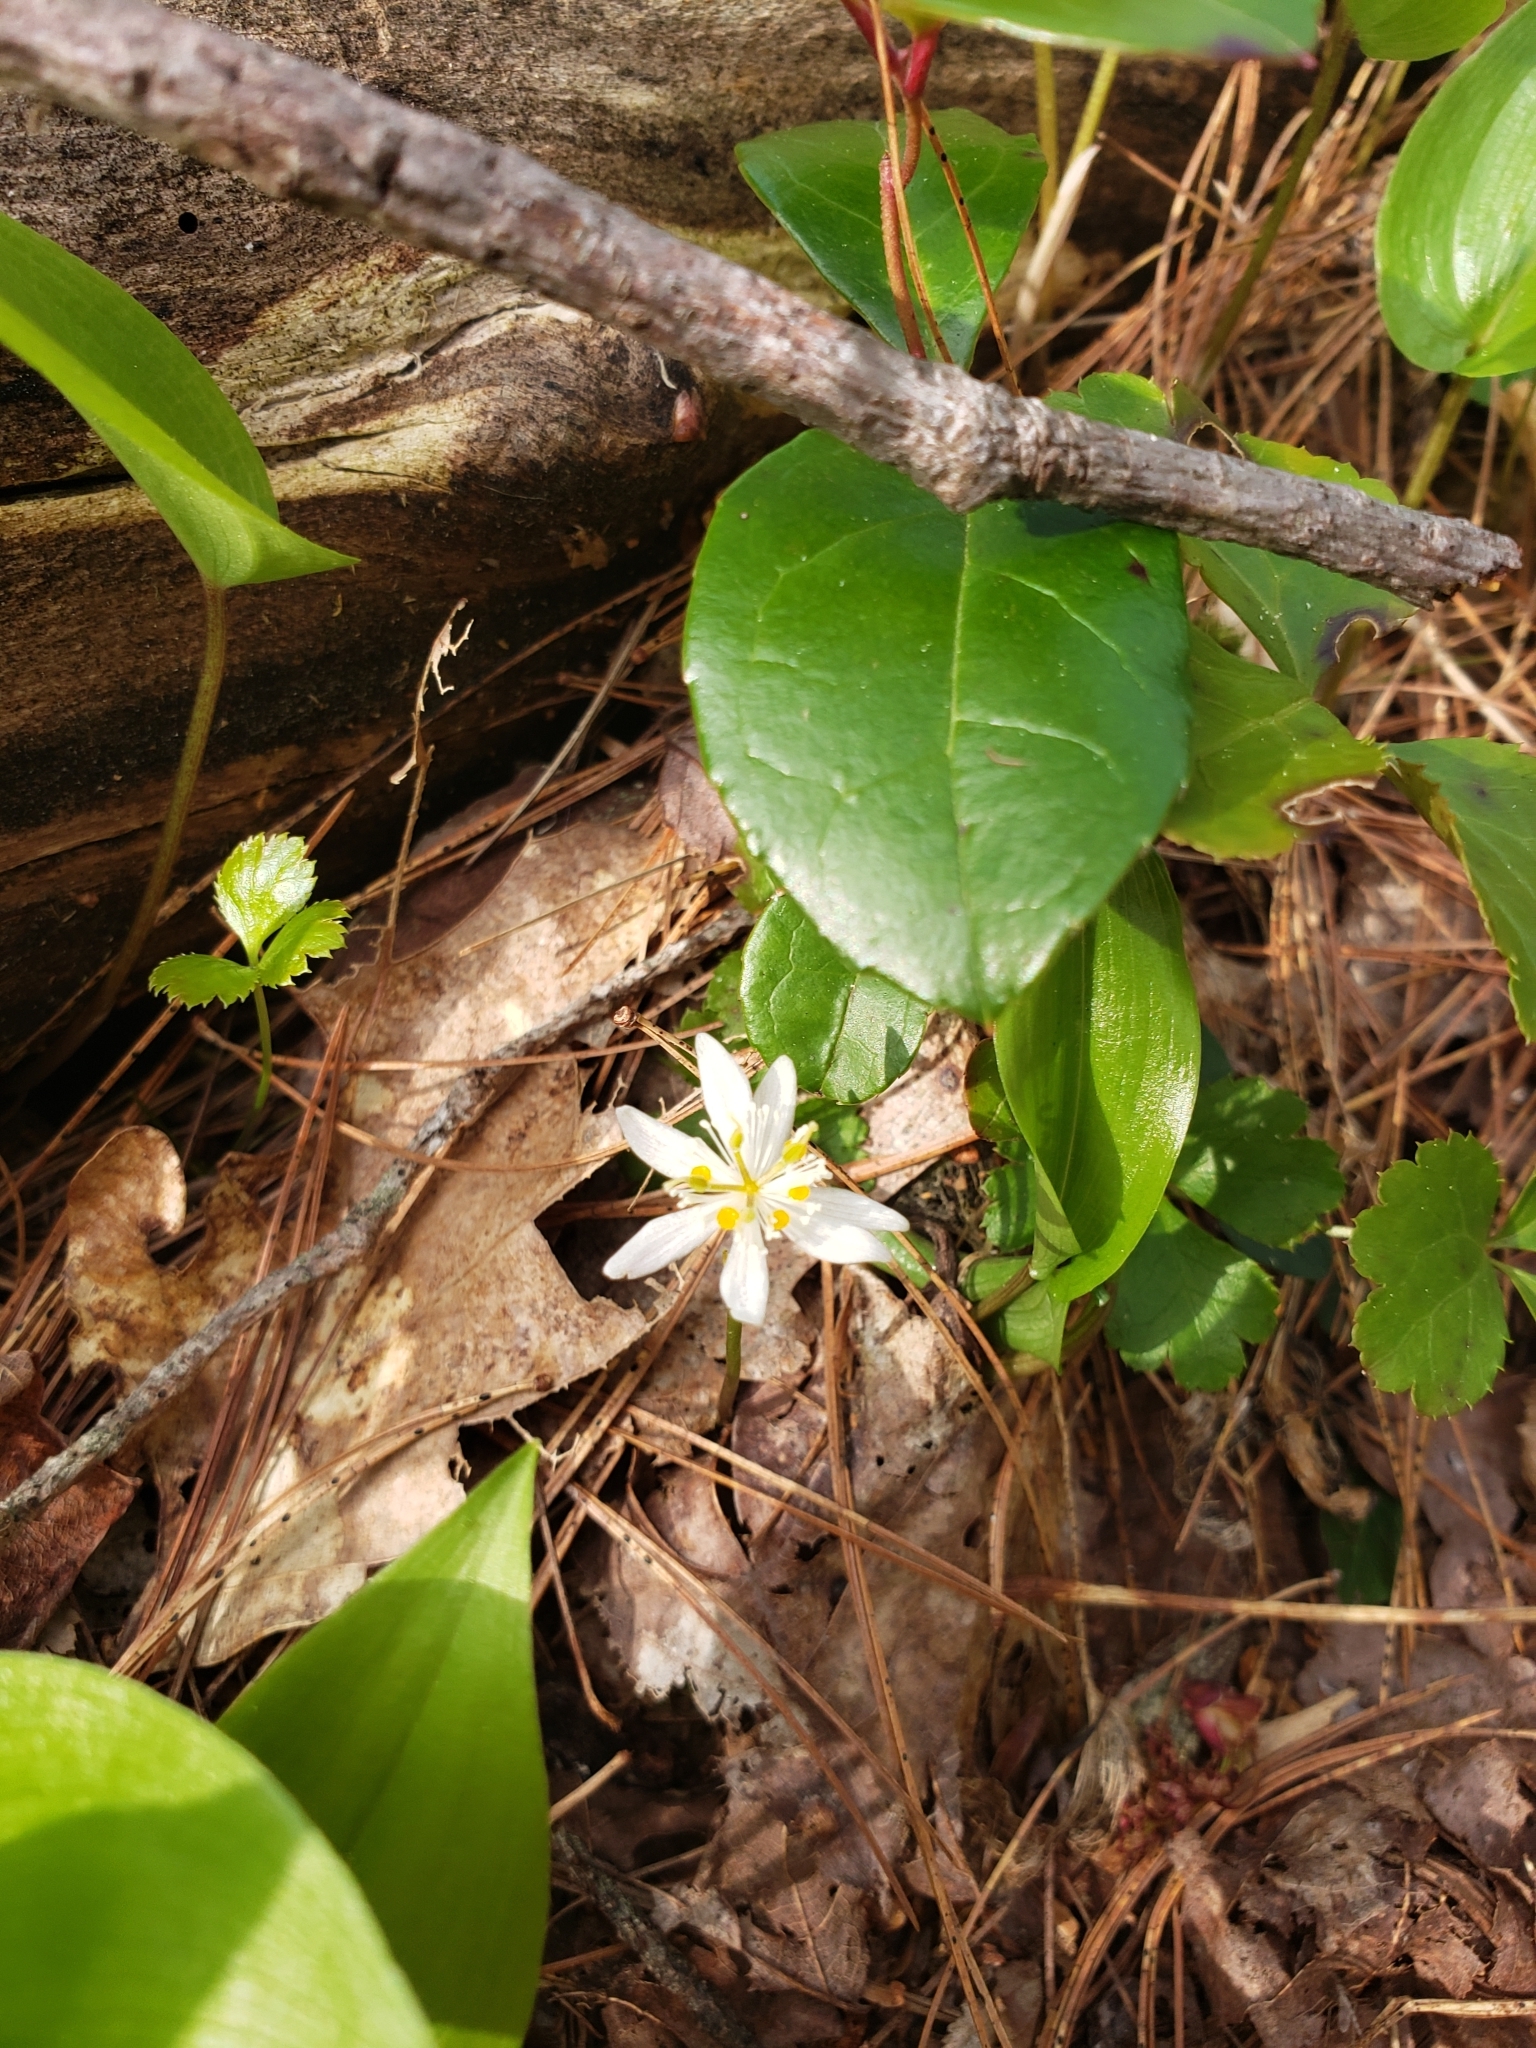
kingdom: Plantae
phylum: Tracheophyta
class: Magnoliopsida
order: Ranunculales
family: Ranunculaceae
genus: Coptis
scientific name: Coptis trifolia
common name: Canker-root
